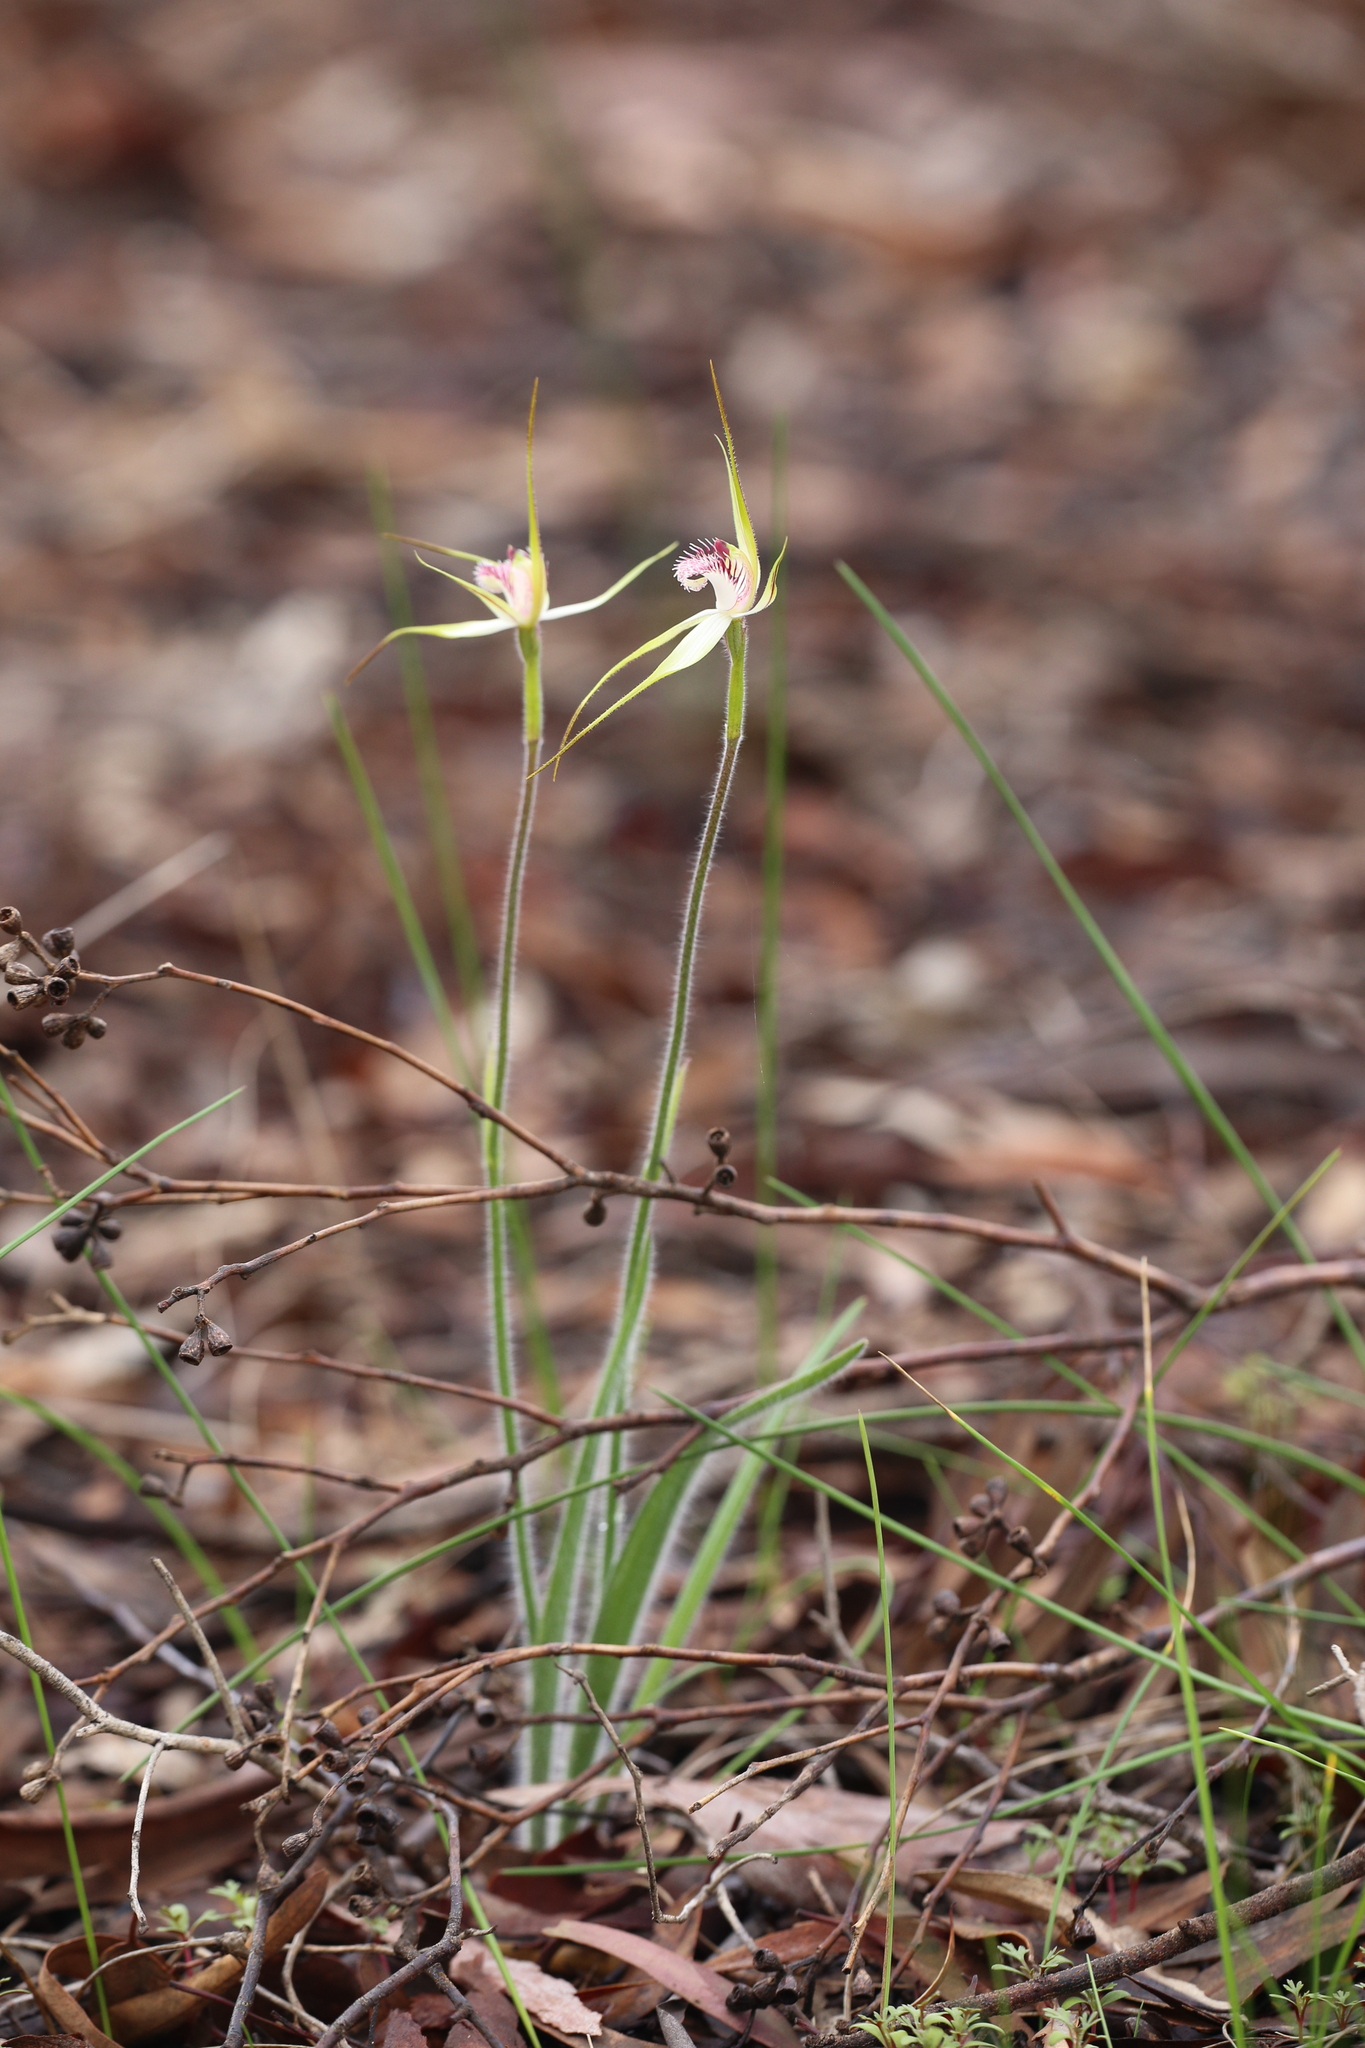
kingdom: Plantae
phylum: Tracheophyta
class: Liliopsida
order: Asparagales
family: Orchidaceae
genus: Caladenia
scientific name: Caladenia multiplex
